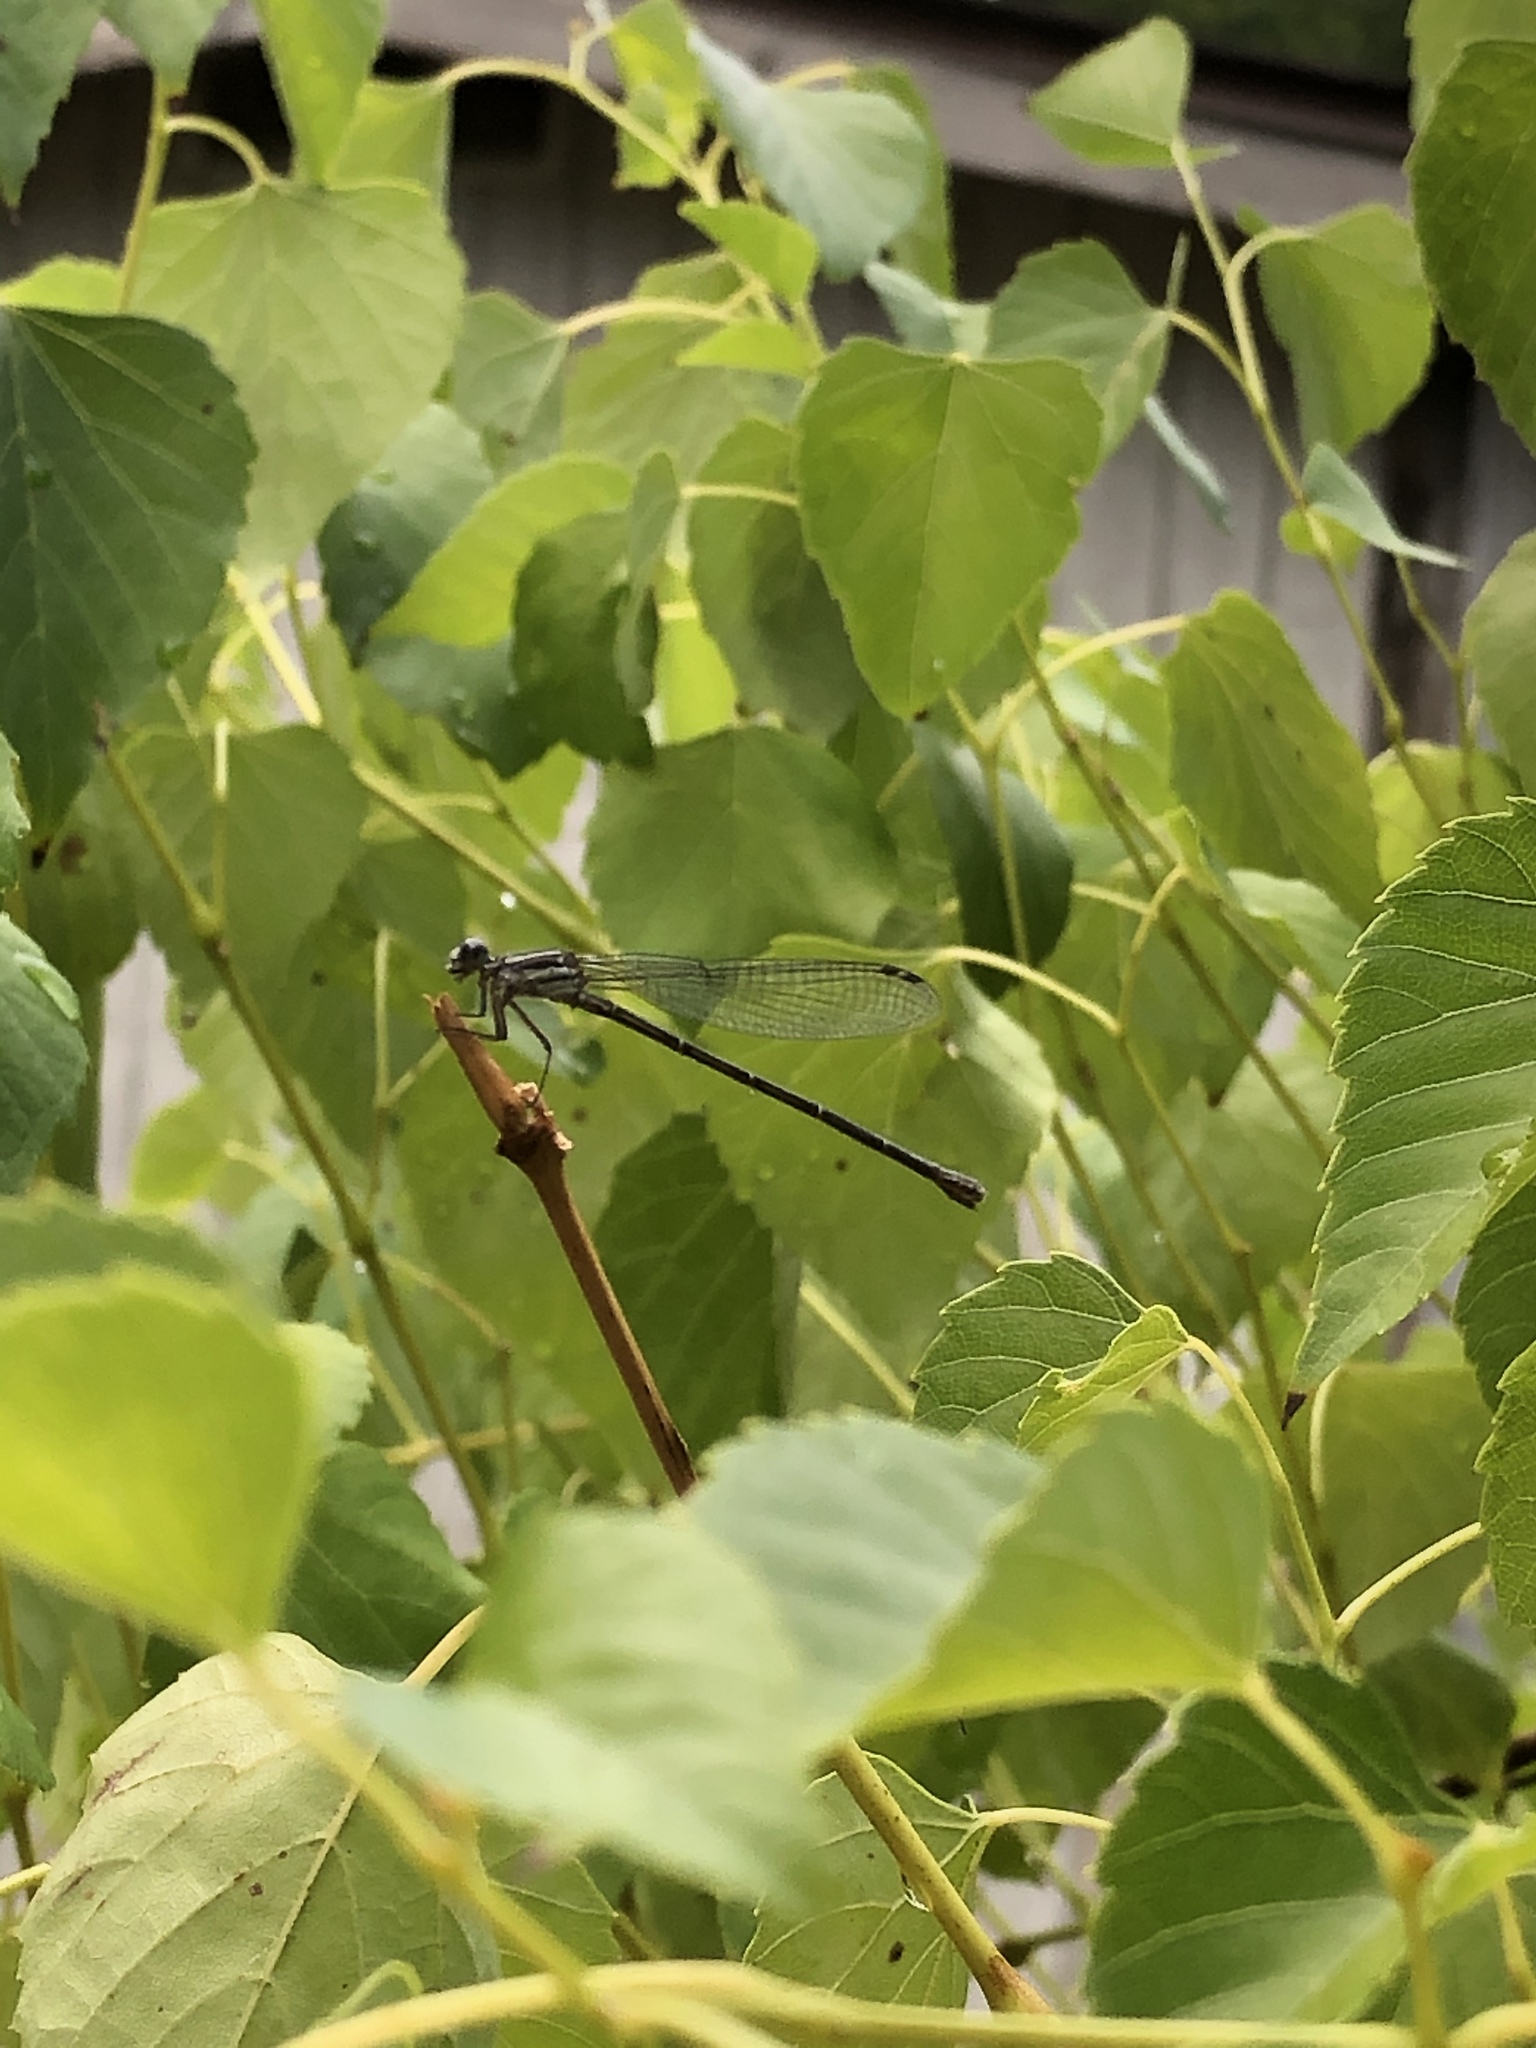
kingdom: Animalia
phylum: Arthropoda
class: Insecta
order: Odonata
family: Coenagrionidae
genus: Argia
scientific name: Argia translata
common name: Dusky dancer
